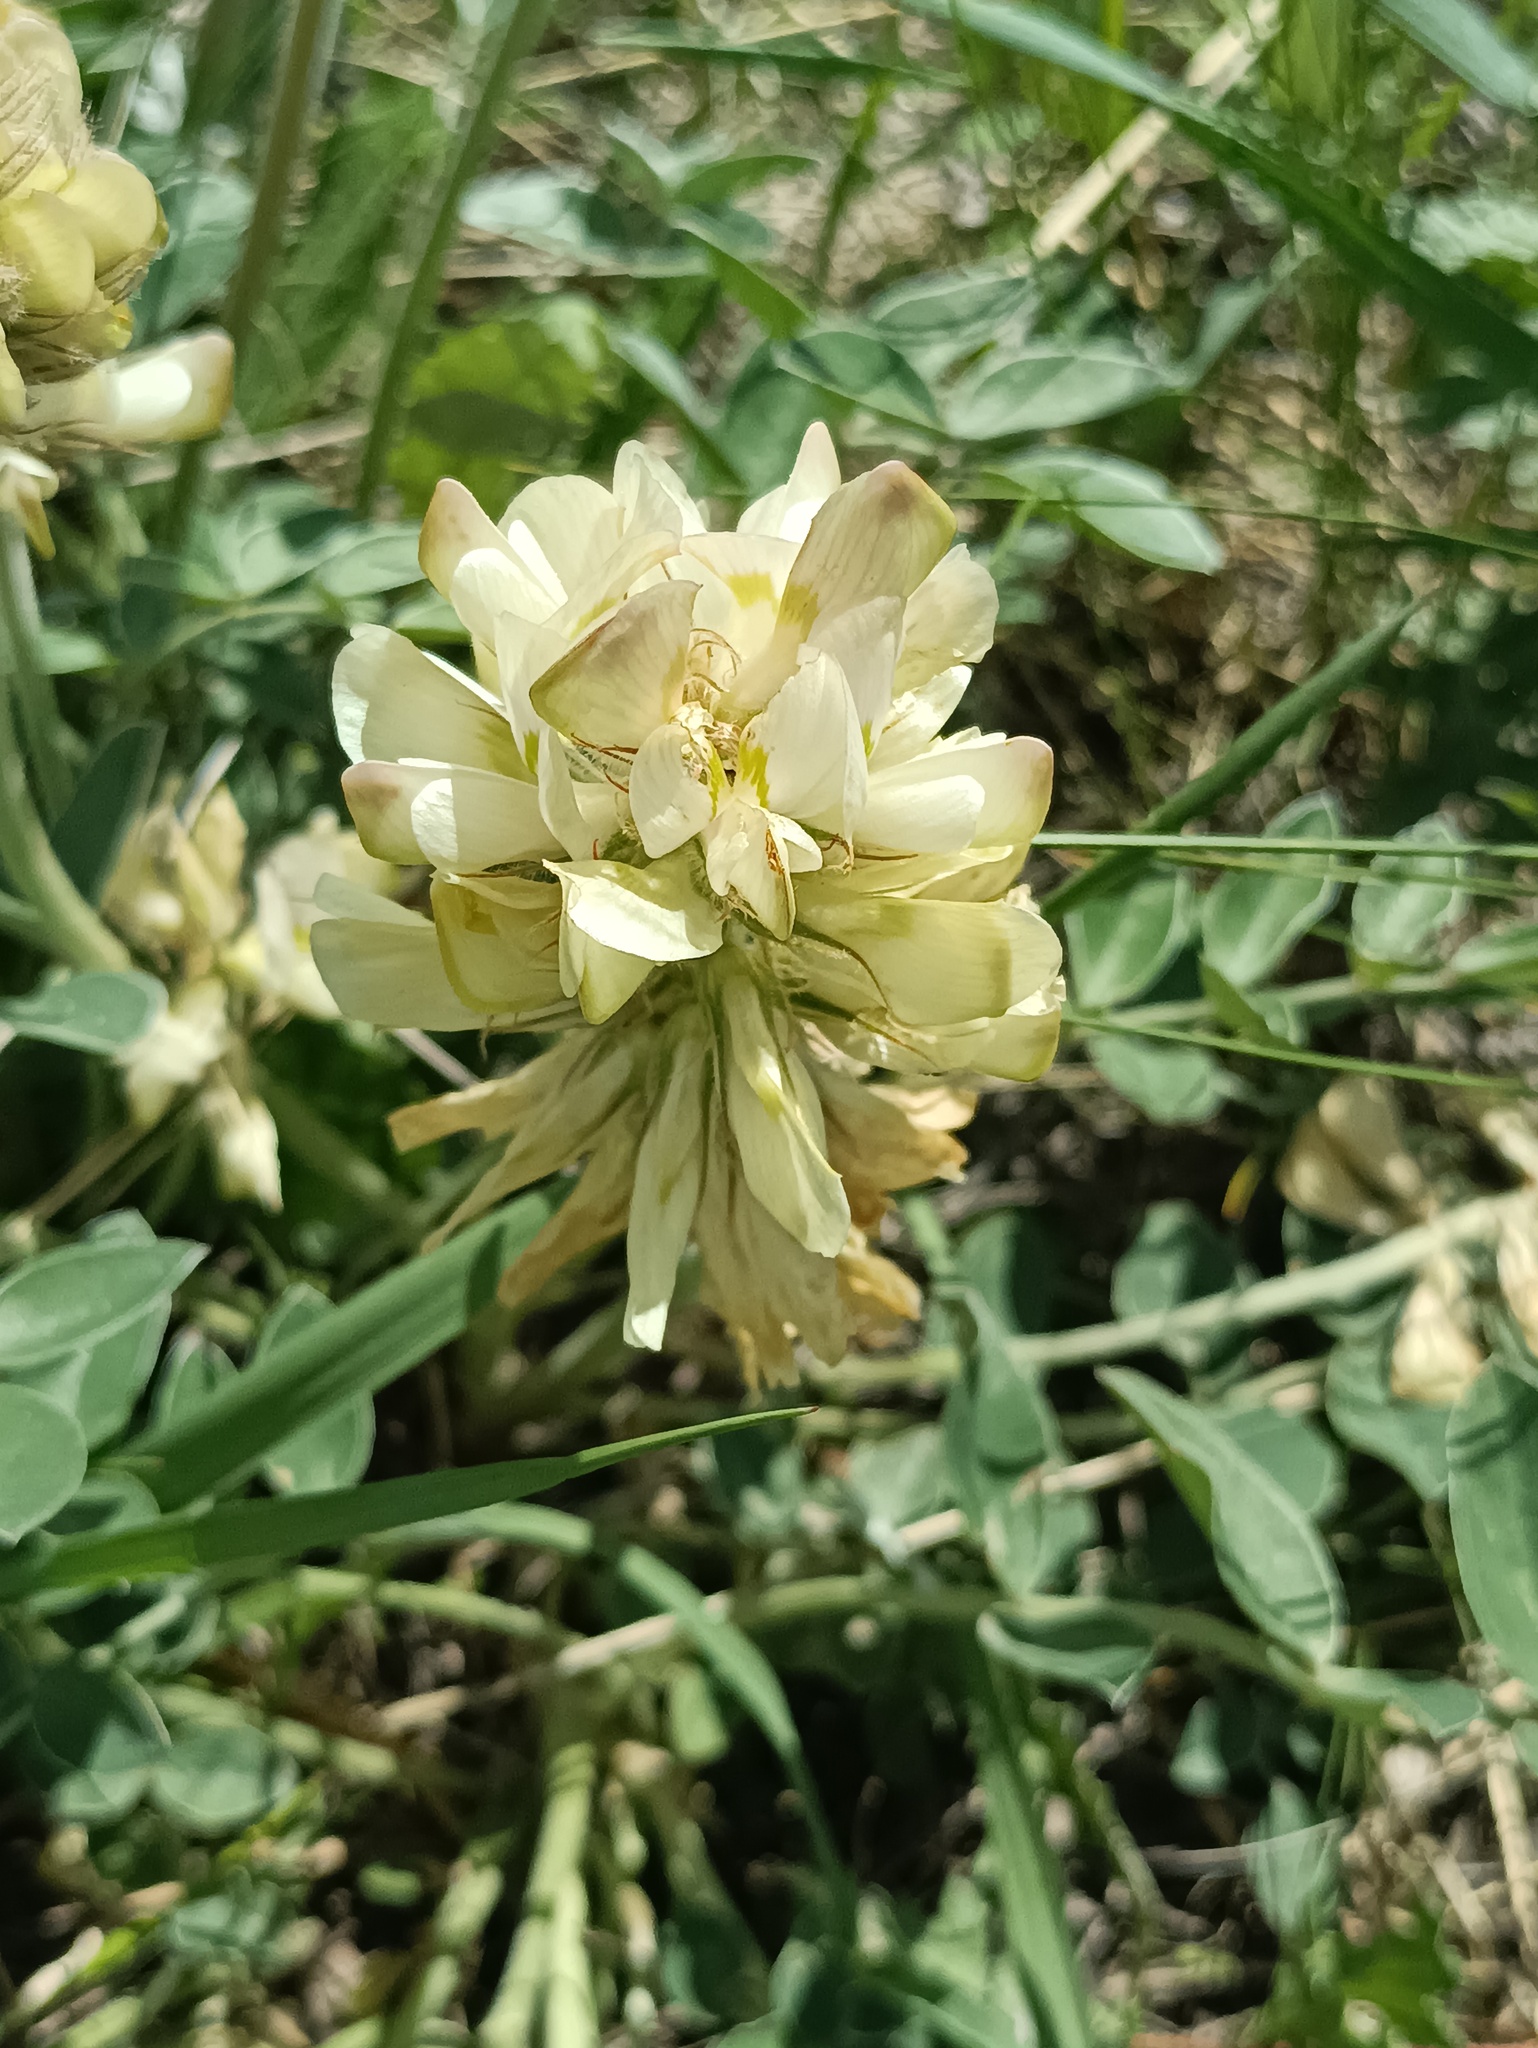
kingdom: Plantae
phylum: Tracheophyta
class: Magnoliopsida
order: Fabales
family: Fabaceae
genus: Hedysarum
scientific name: Hedysarum grandiflorum
